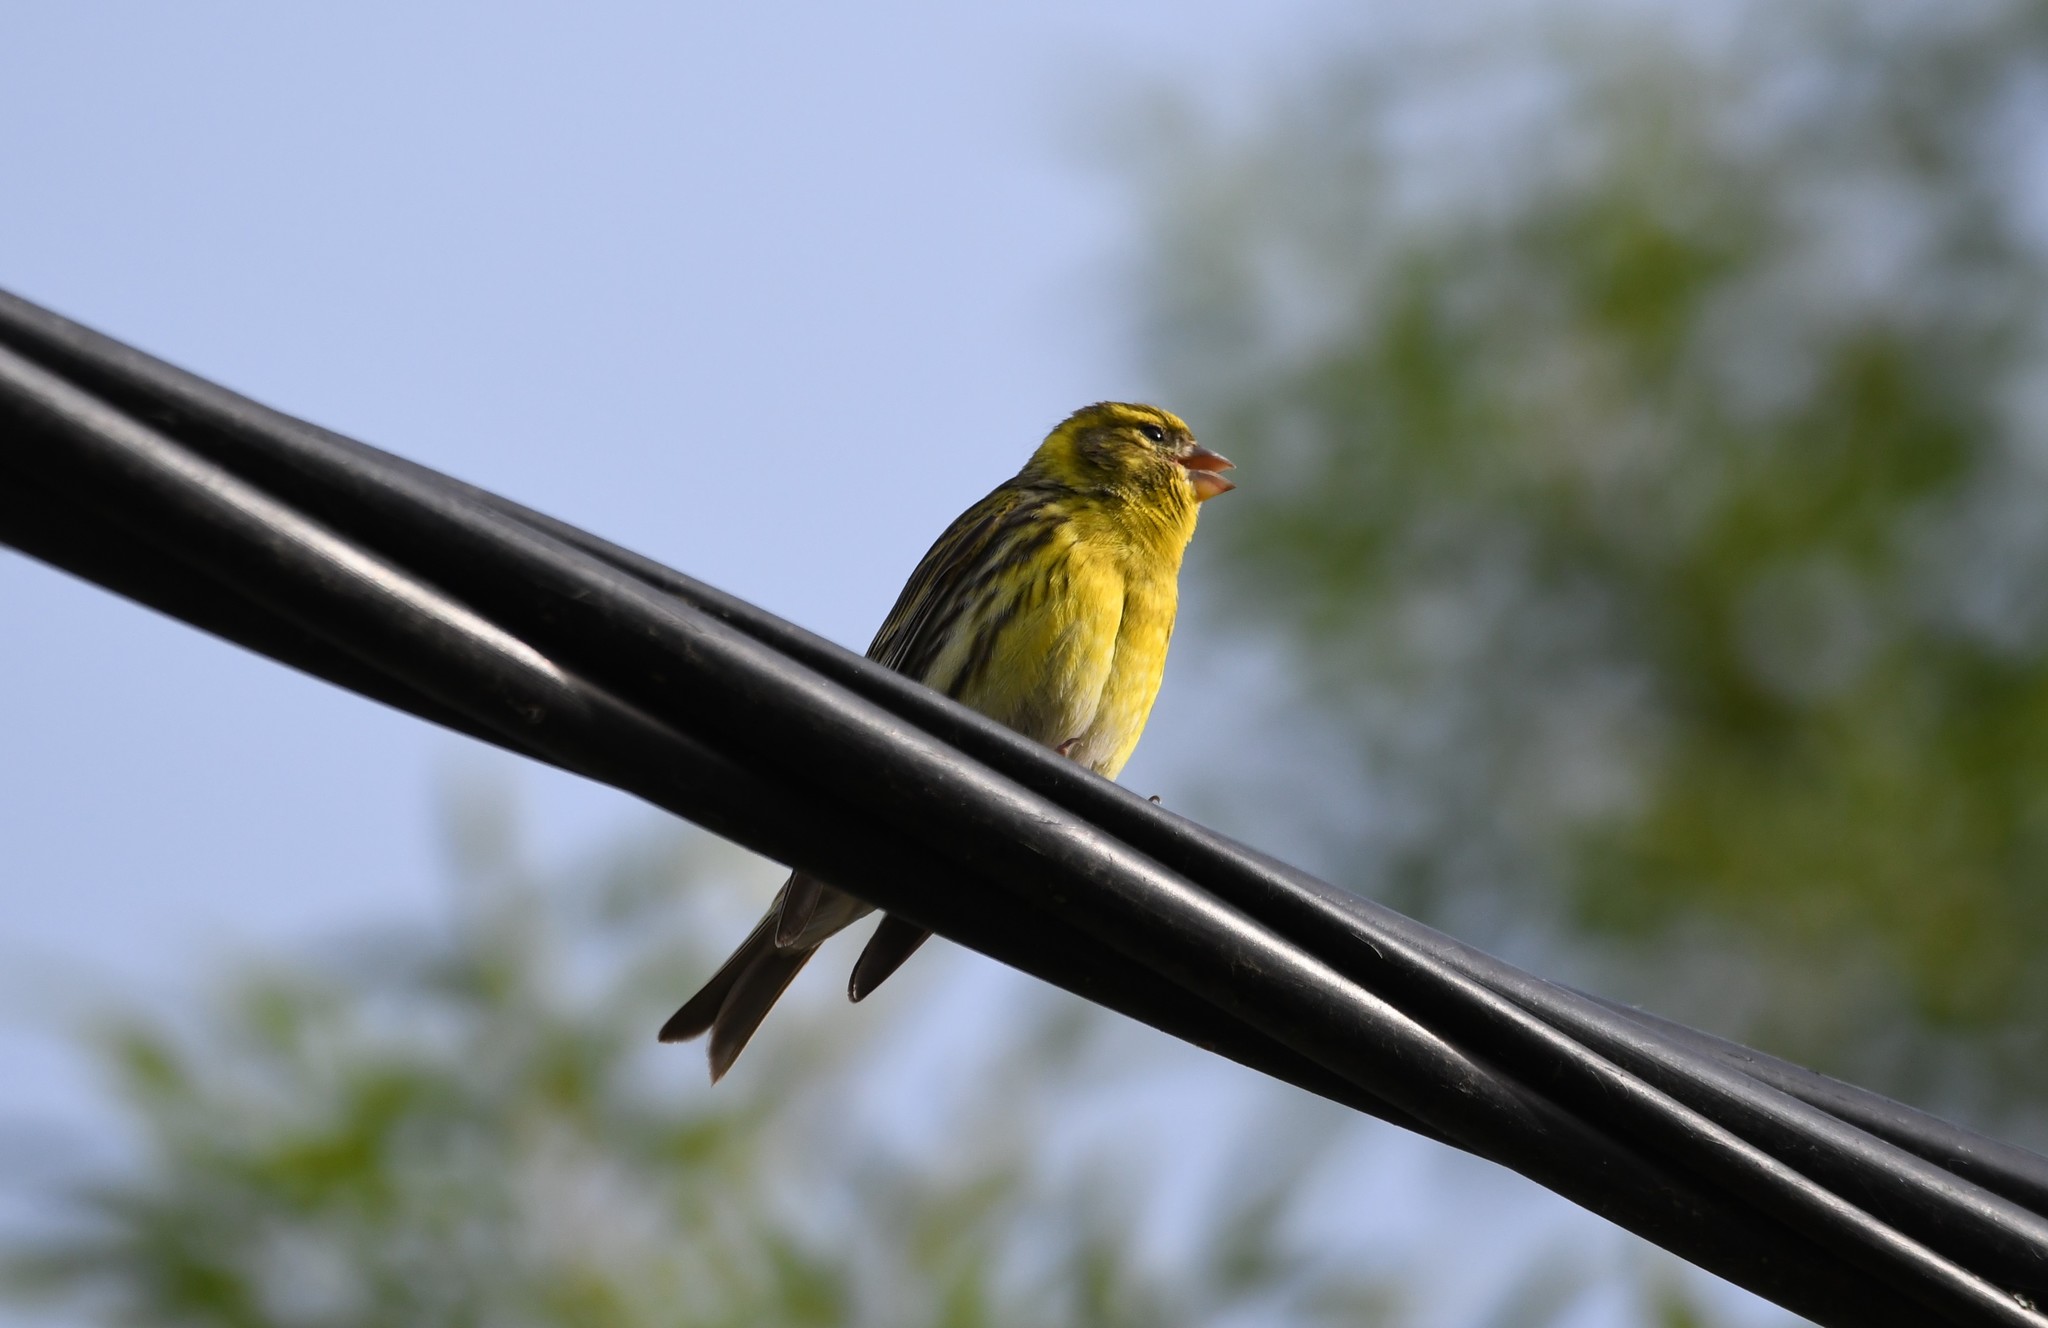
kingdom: Animalia
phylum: Chordata
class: Aves
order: Passeriformes
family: Fringillidae
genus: Serinus
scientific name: Serinus serinus
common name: European serin
